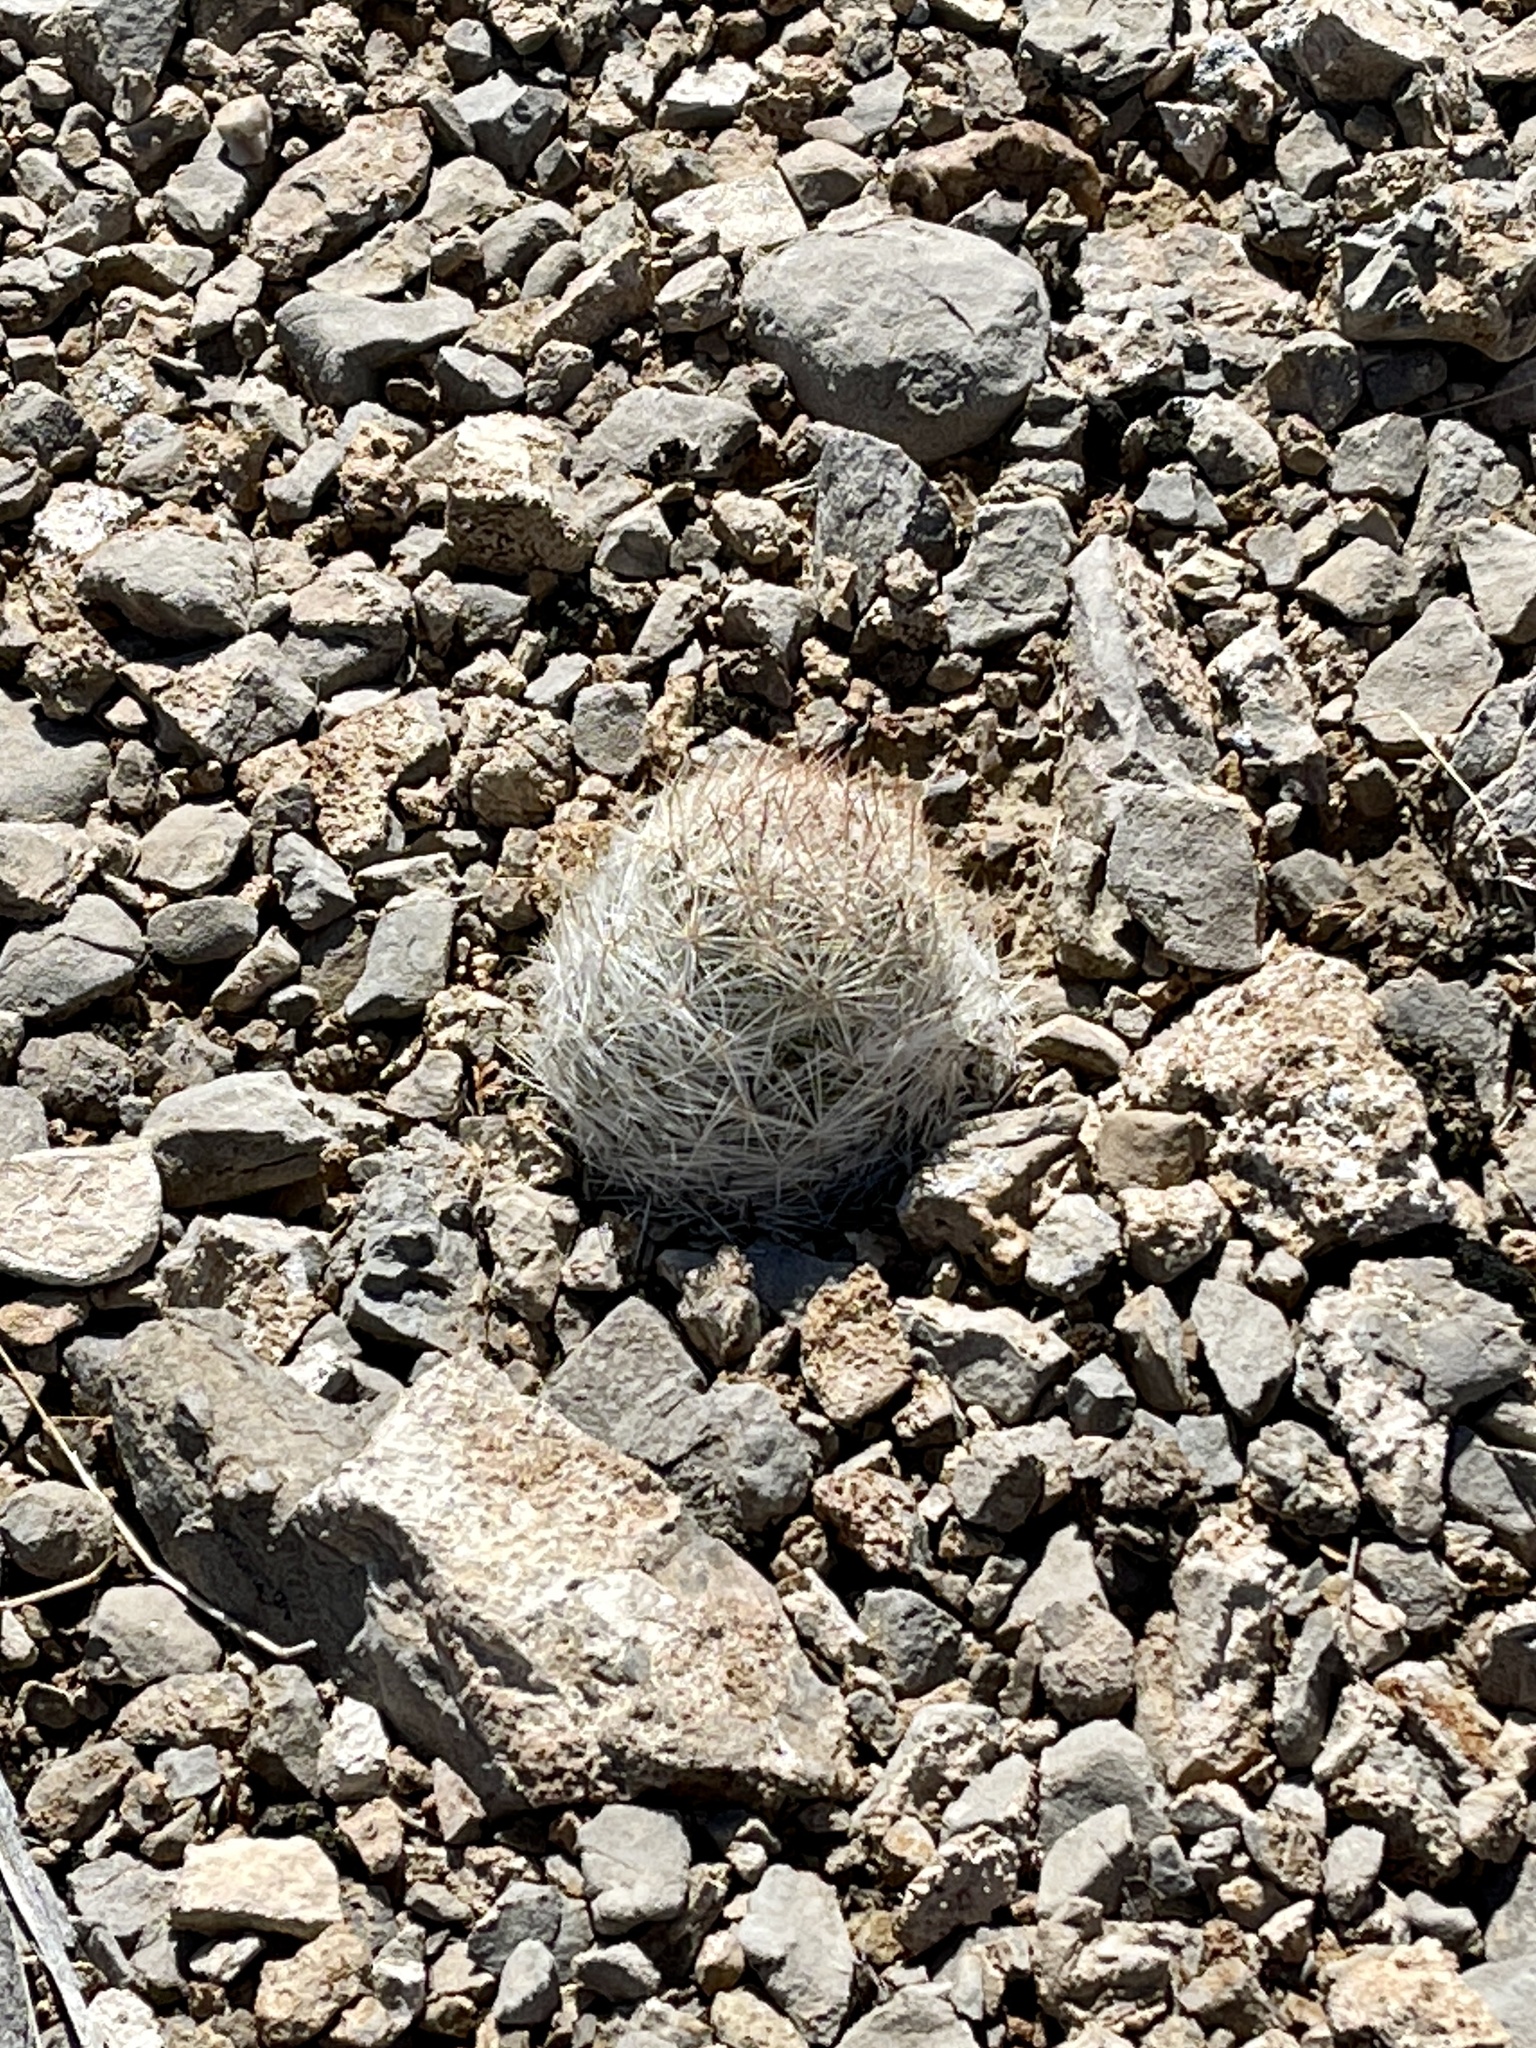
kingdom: Plantae
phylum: Tracheophyta
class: Magnoliopsida
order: Caryophyllales
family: Cactaceae
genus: Pelecyphora
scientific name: Pelecyphora dasyacantha
